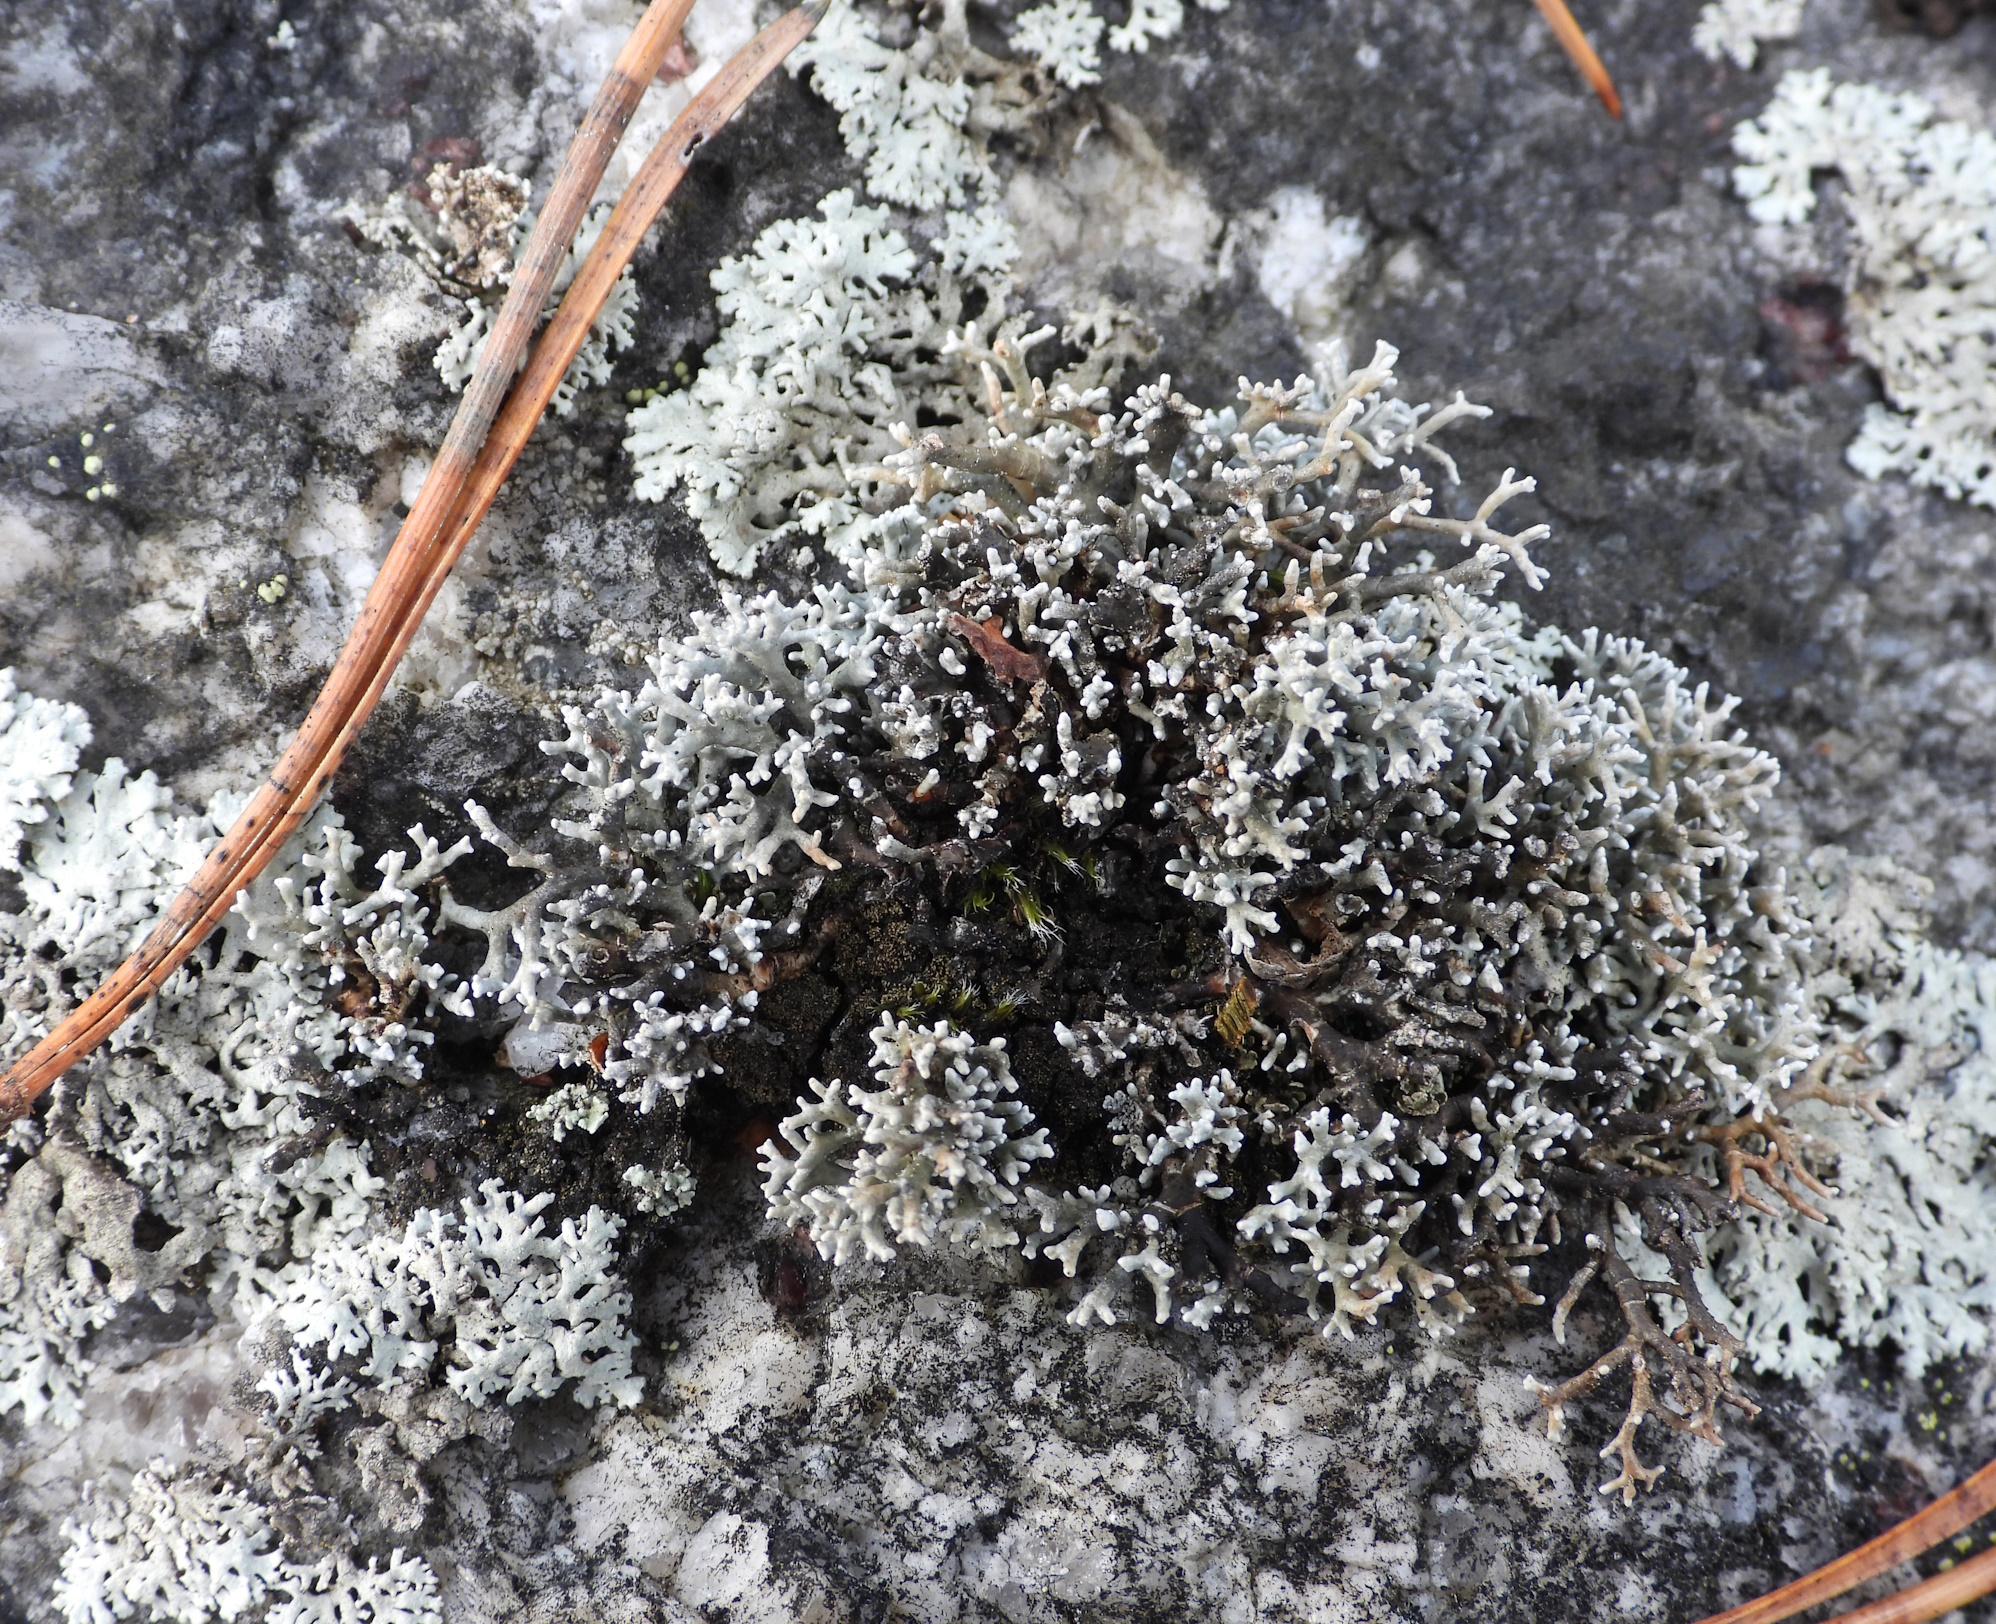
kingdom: Fungi
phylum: Ascomycota
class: Lecanoromycetes
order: Lecanorales
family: Sphaerophoraceae
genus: Sphaerophorus
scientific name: Sphaerophorus fragilis
